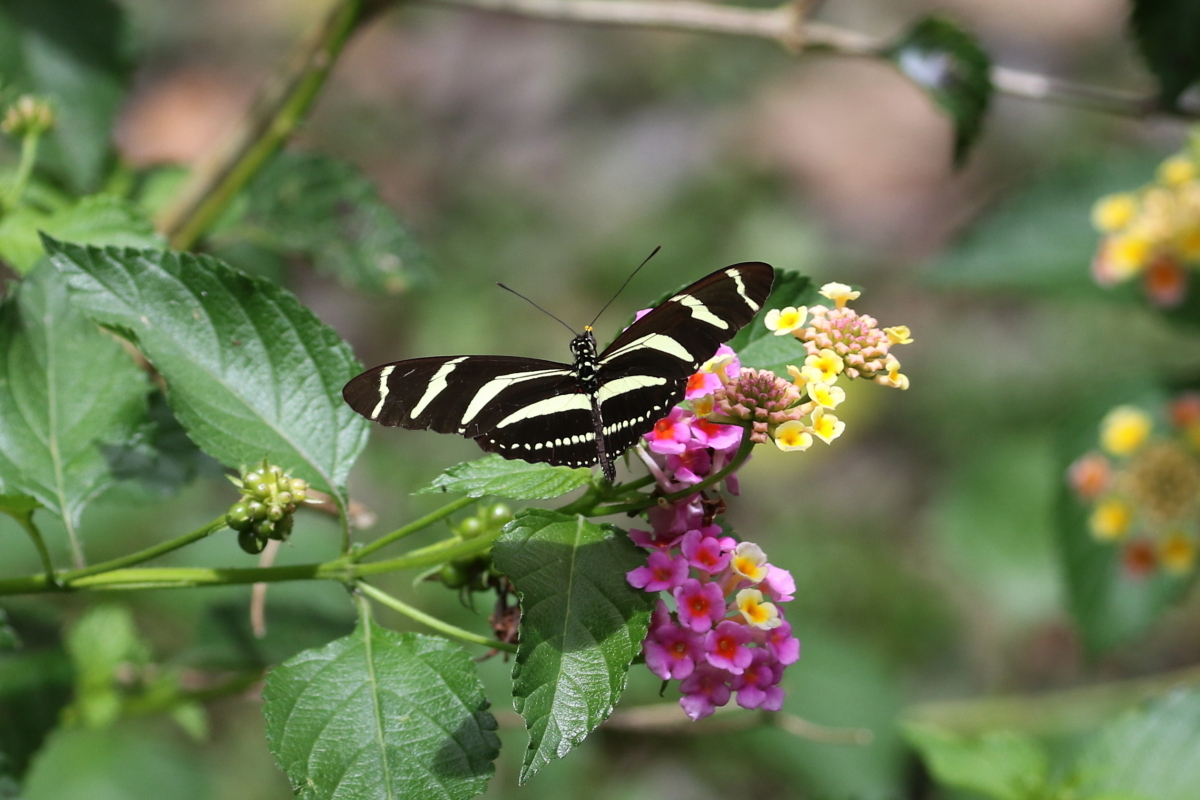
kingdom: Animalia
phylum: Arthropoda
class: Insecta
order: Lepidoptera
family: Nymphalidae
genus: Heliconius
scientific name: Heliconius charithonia
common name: Zebra long wing
